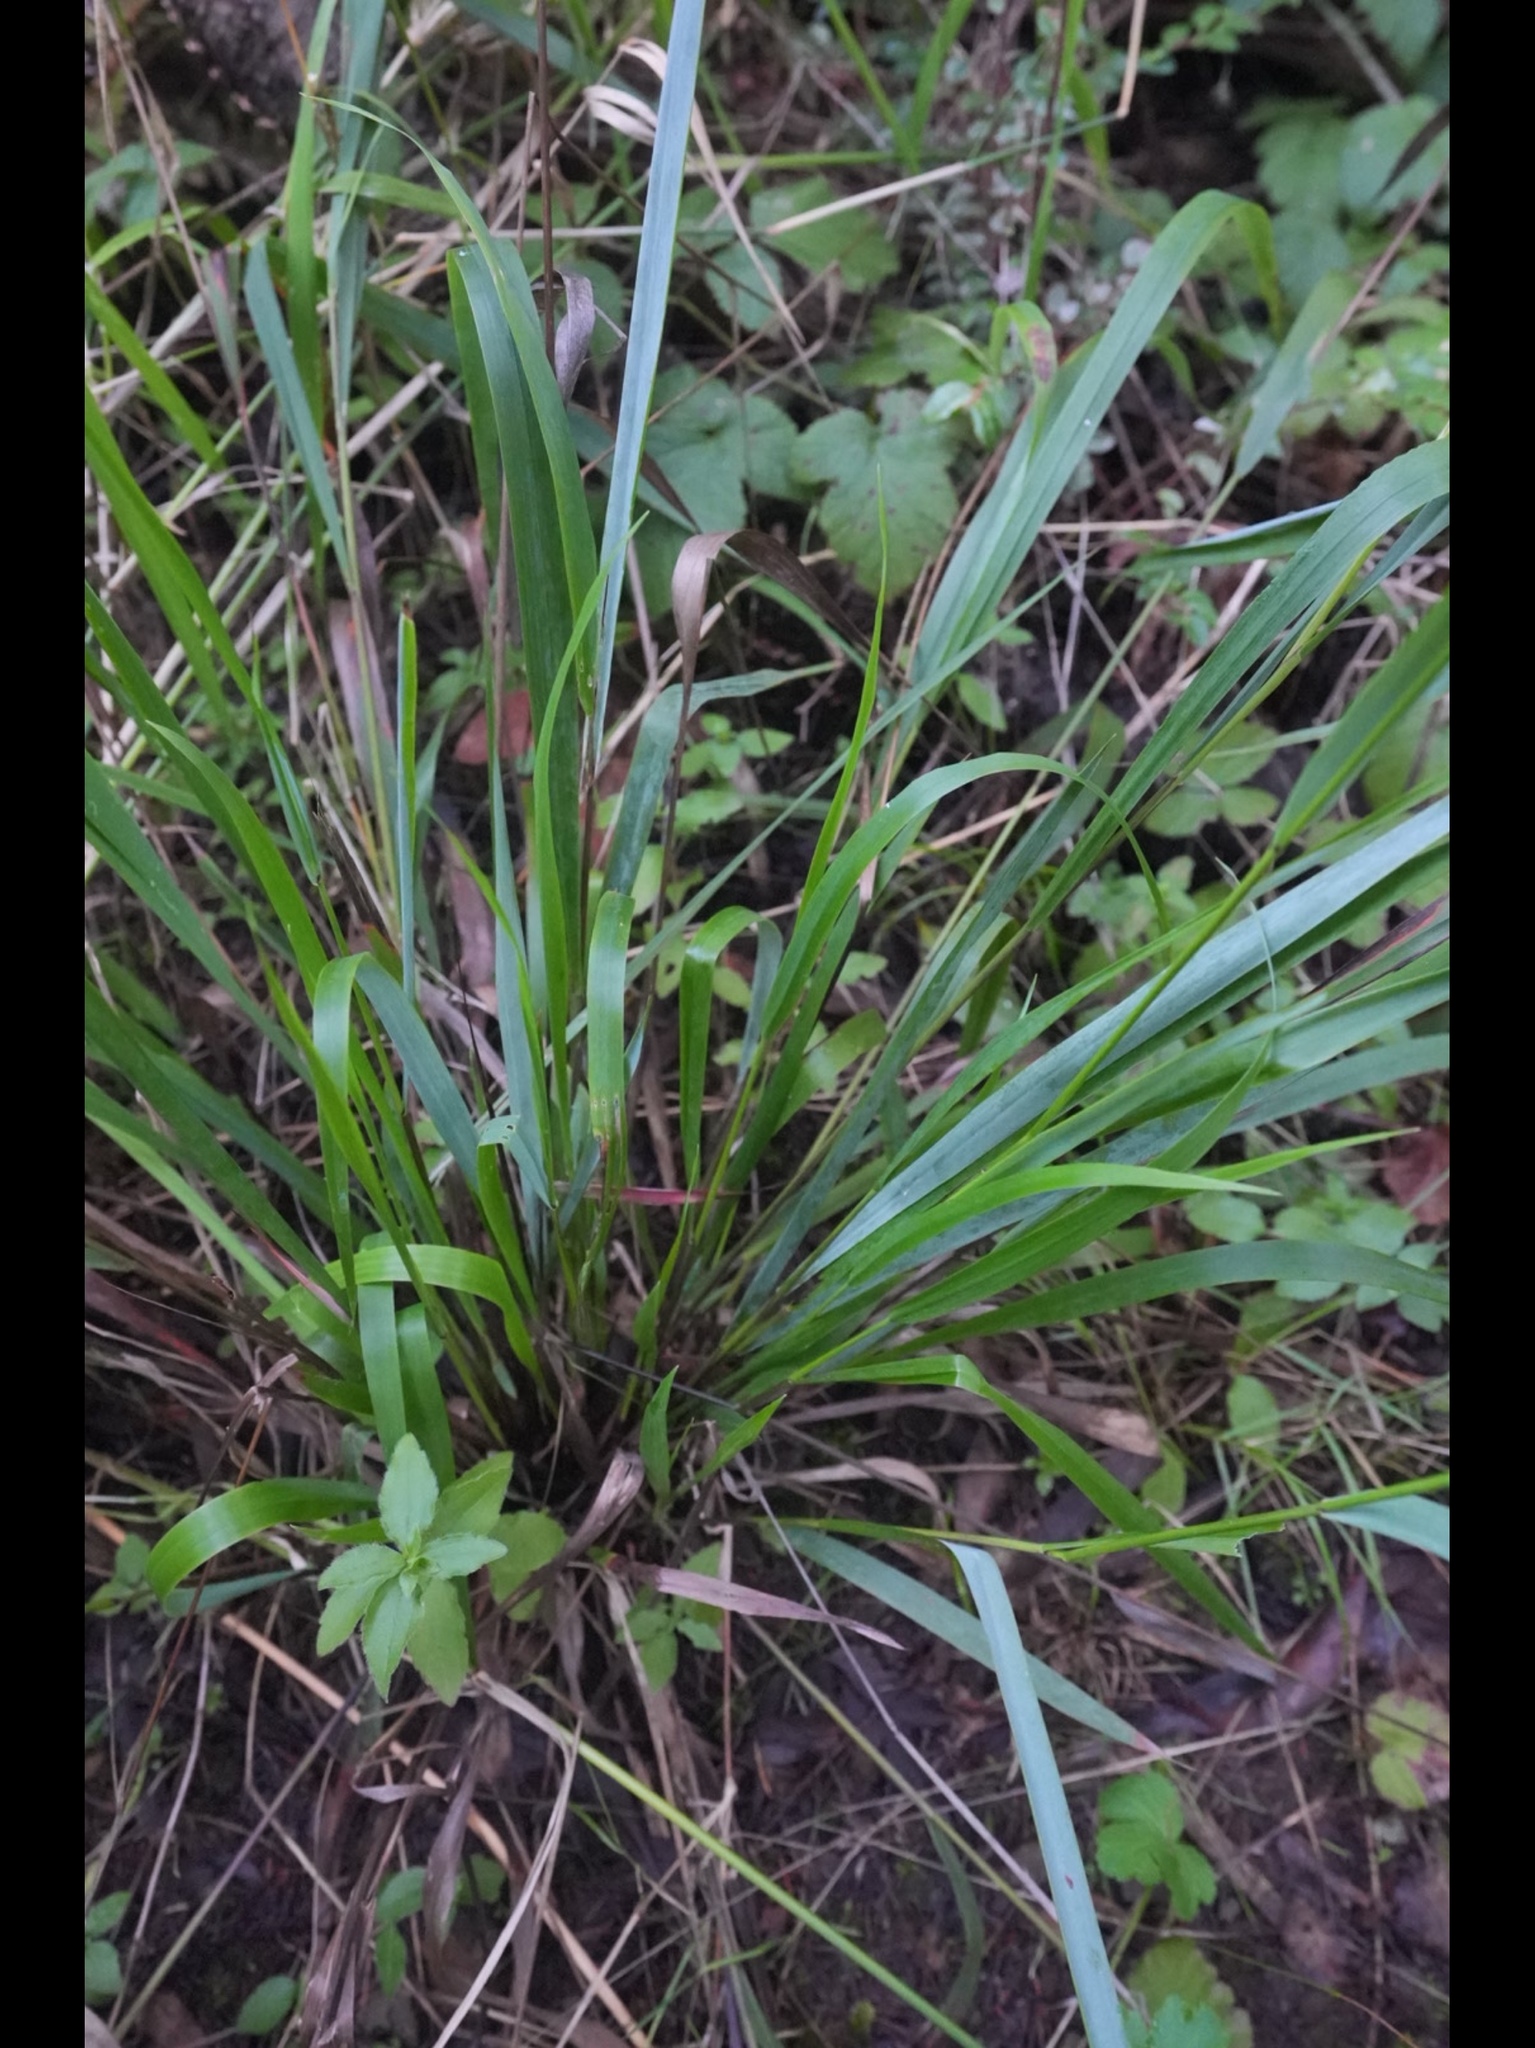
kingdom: Plantae
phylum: Tracheophyta
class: Liliopsida
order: Poales
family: Poaceae
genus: Anthoxanthum
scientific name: Anthoxanthum occidentale
